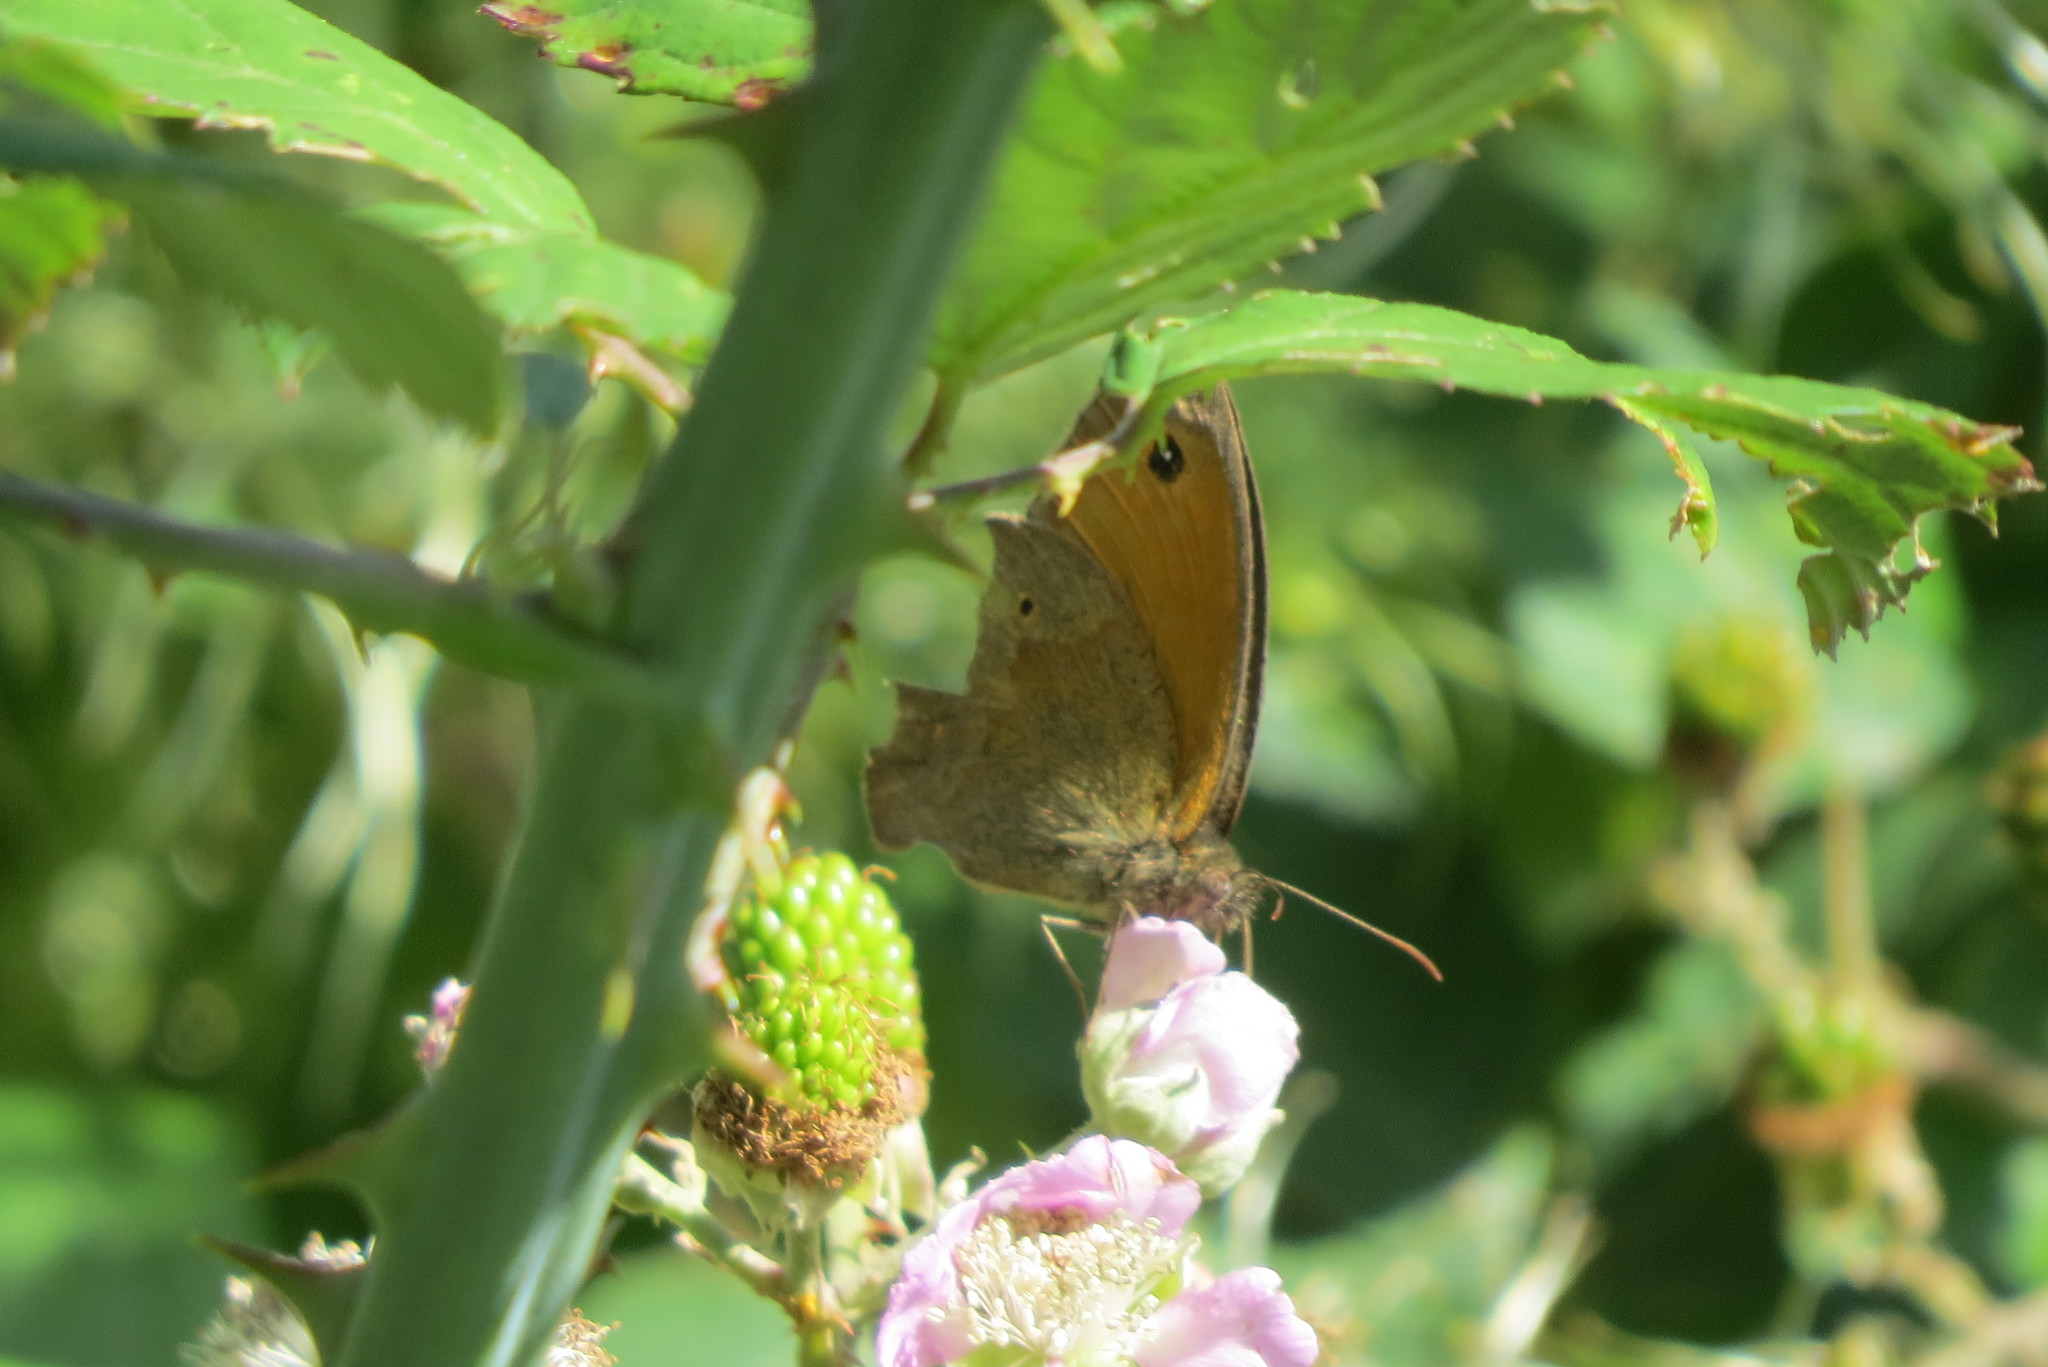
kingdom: Animalia
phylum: Arthropoda
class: Insecta
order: Lepidoptera
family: Nymphalidae
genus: Maniola
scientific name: Maniola jurtina
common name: Meadow brown
